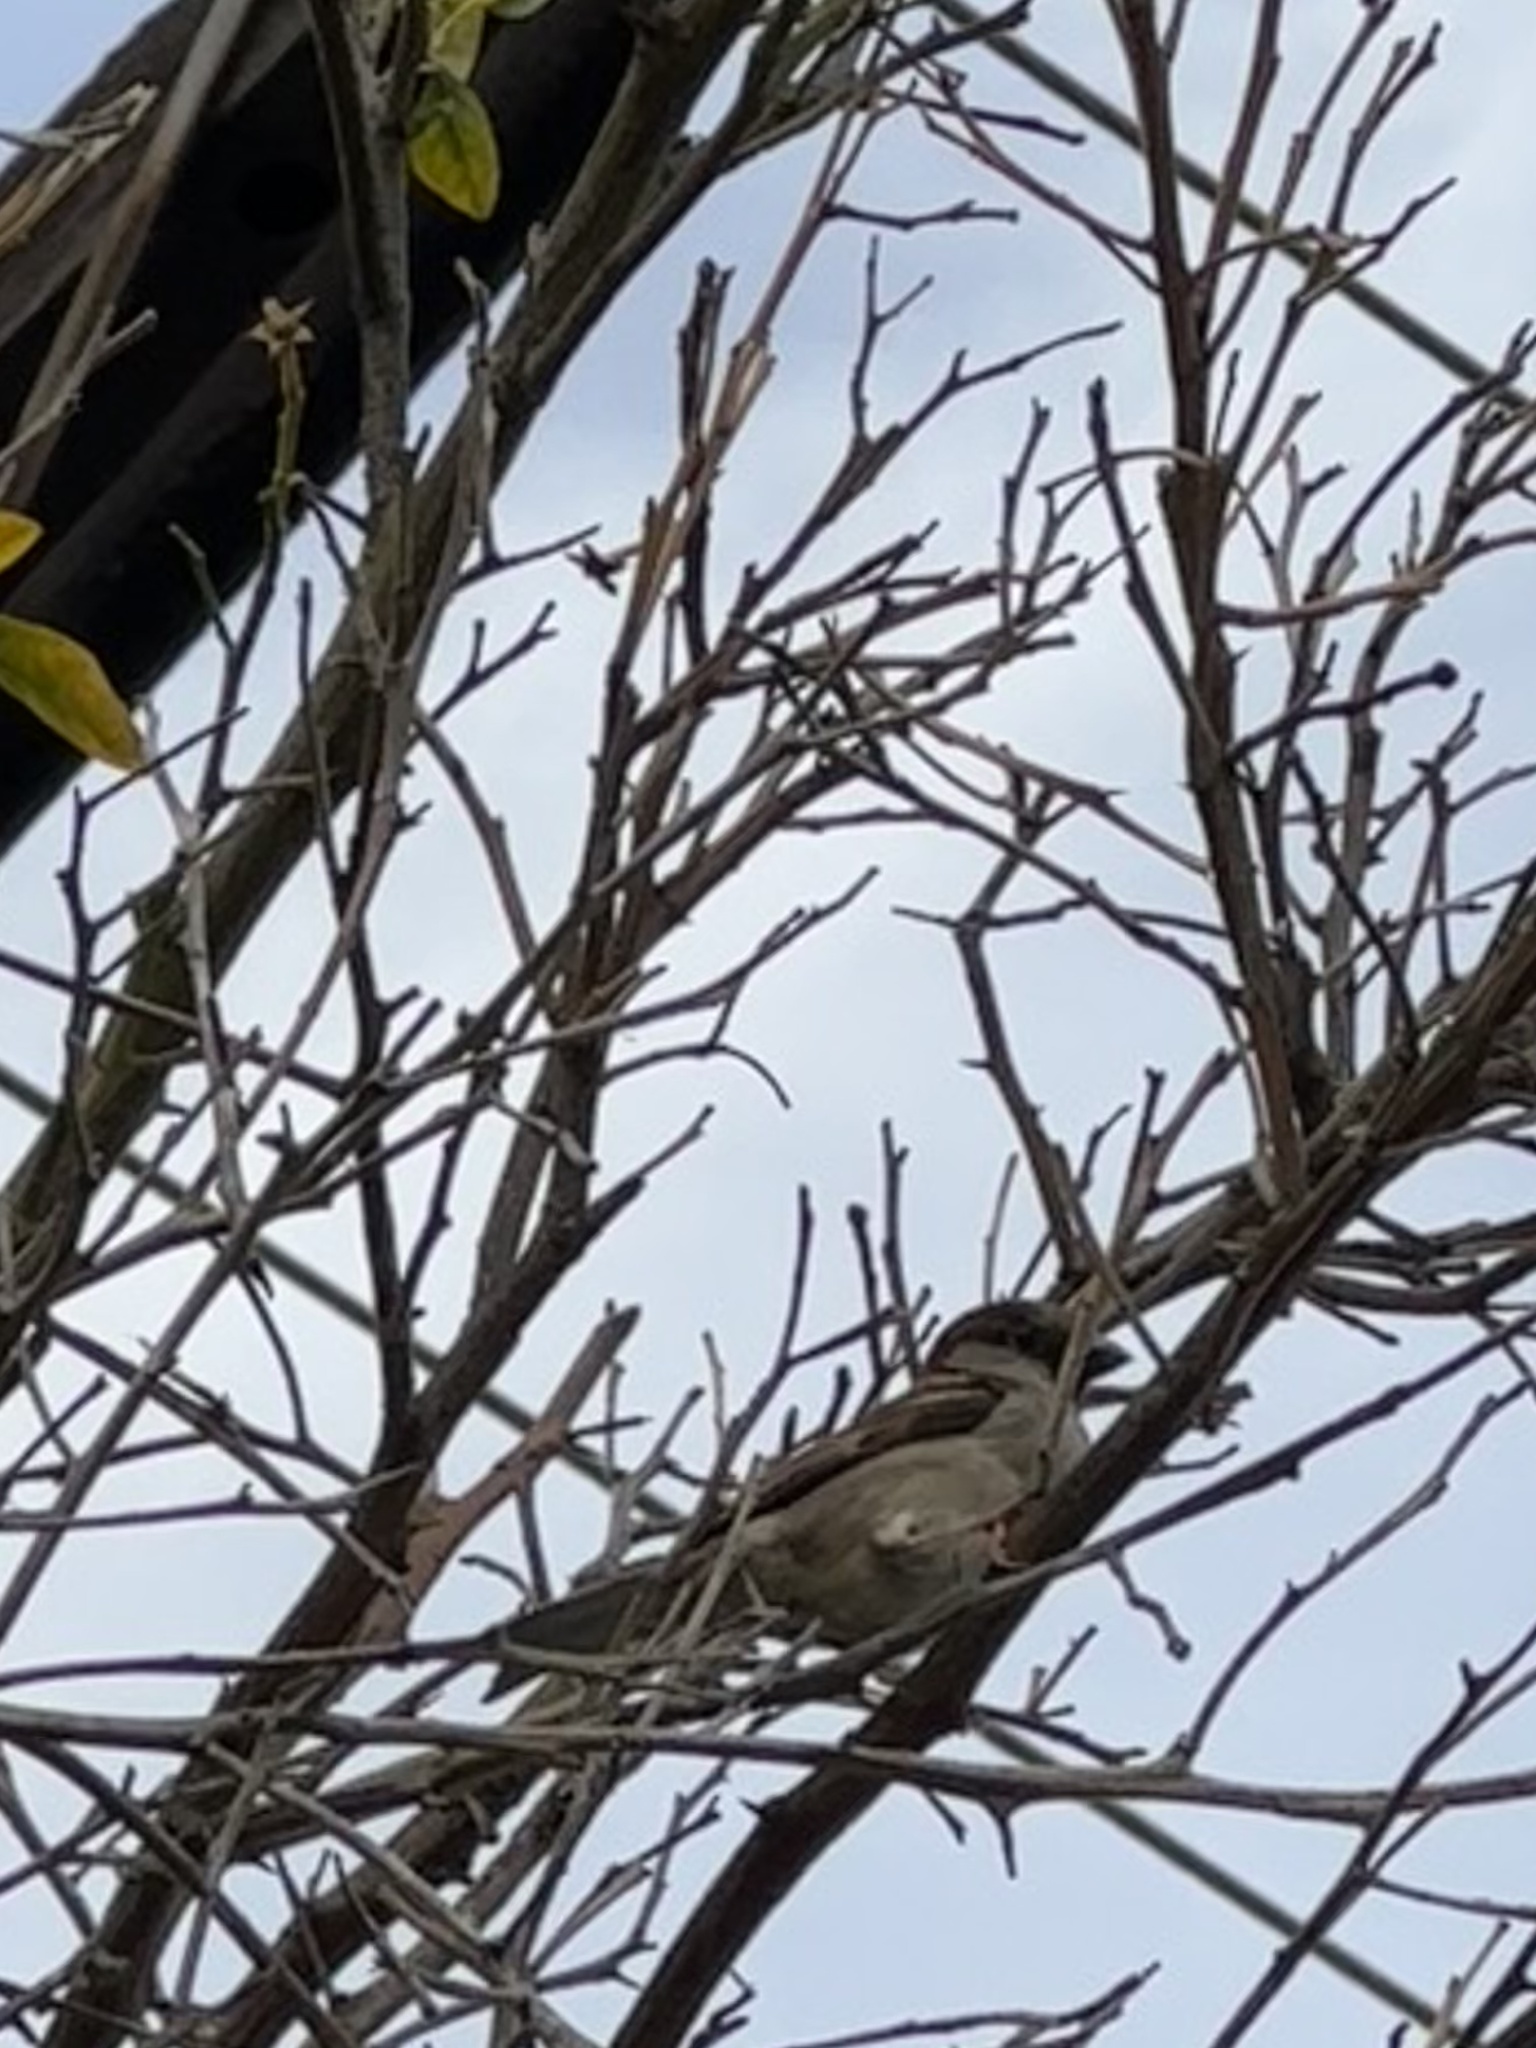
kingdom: Animalia
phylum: Chordata
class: Aves
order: Passeriformes
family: Passeridae
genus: Passer
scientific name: Passer domesticus
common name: House sparrow
